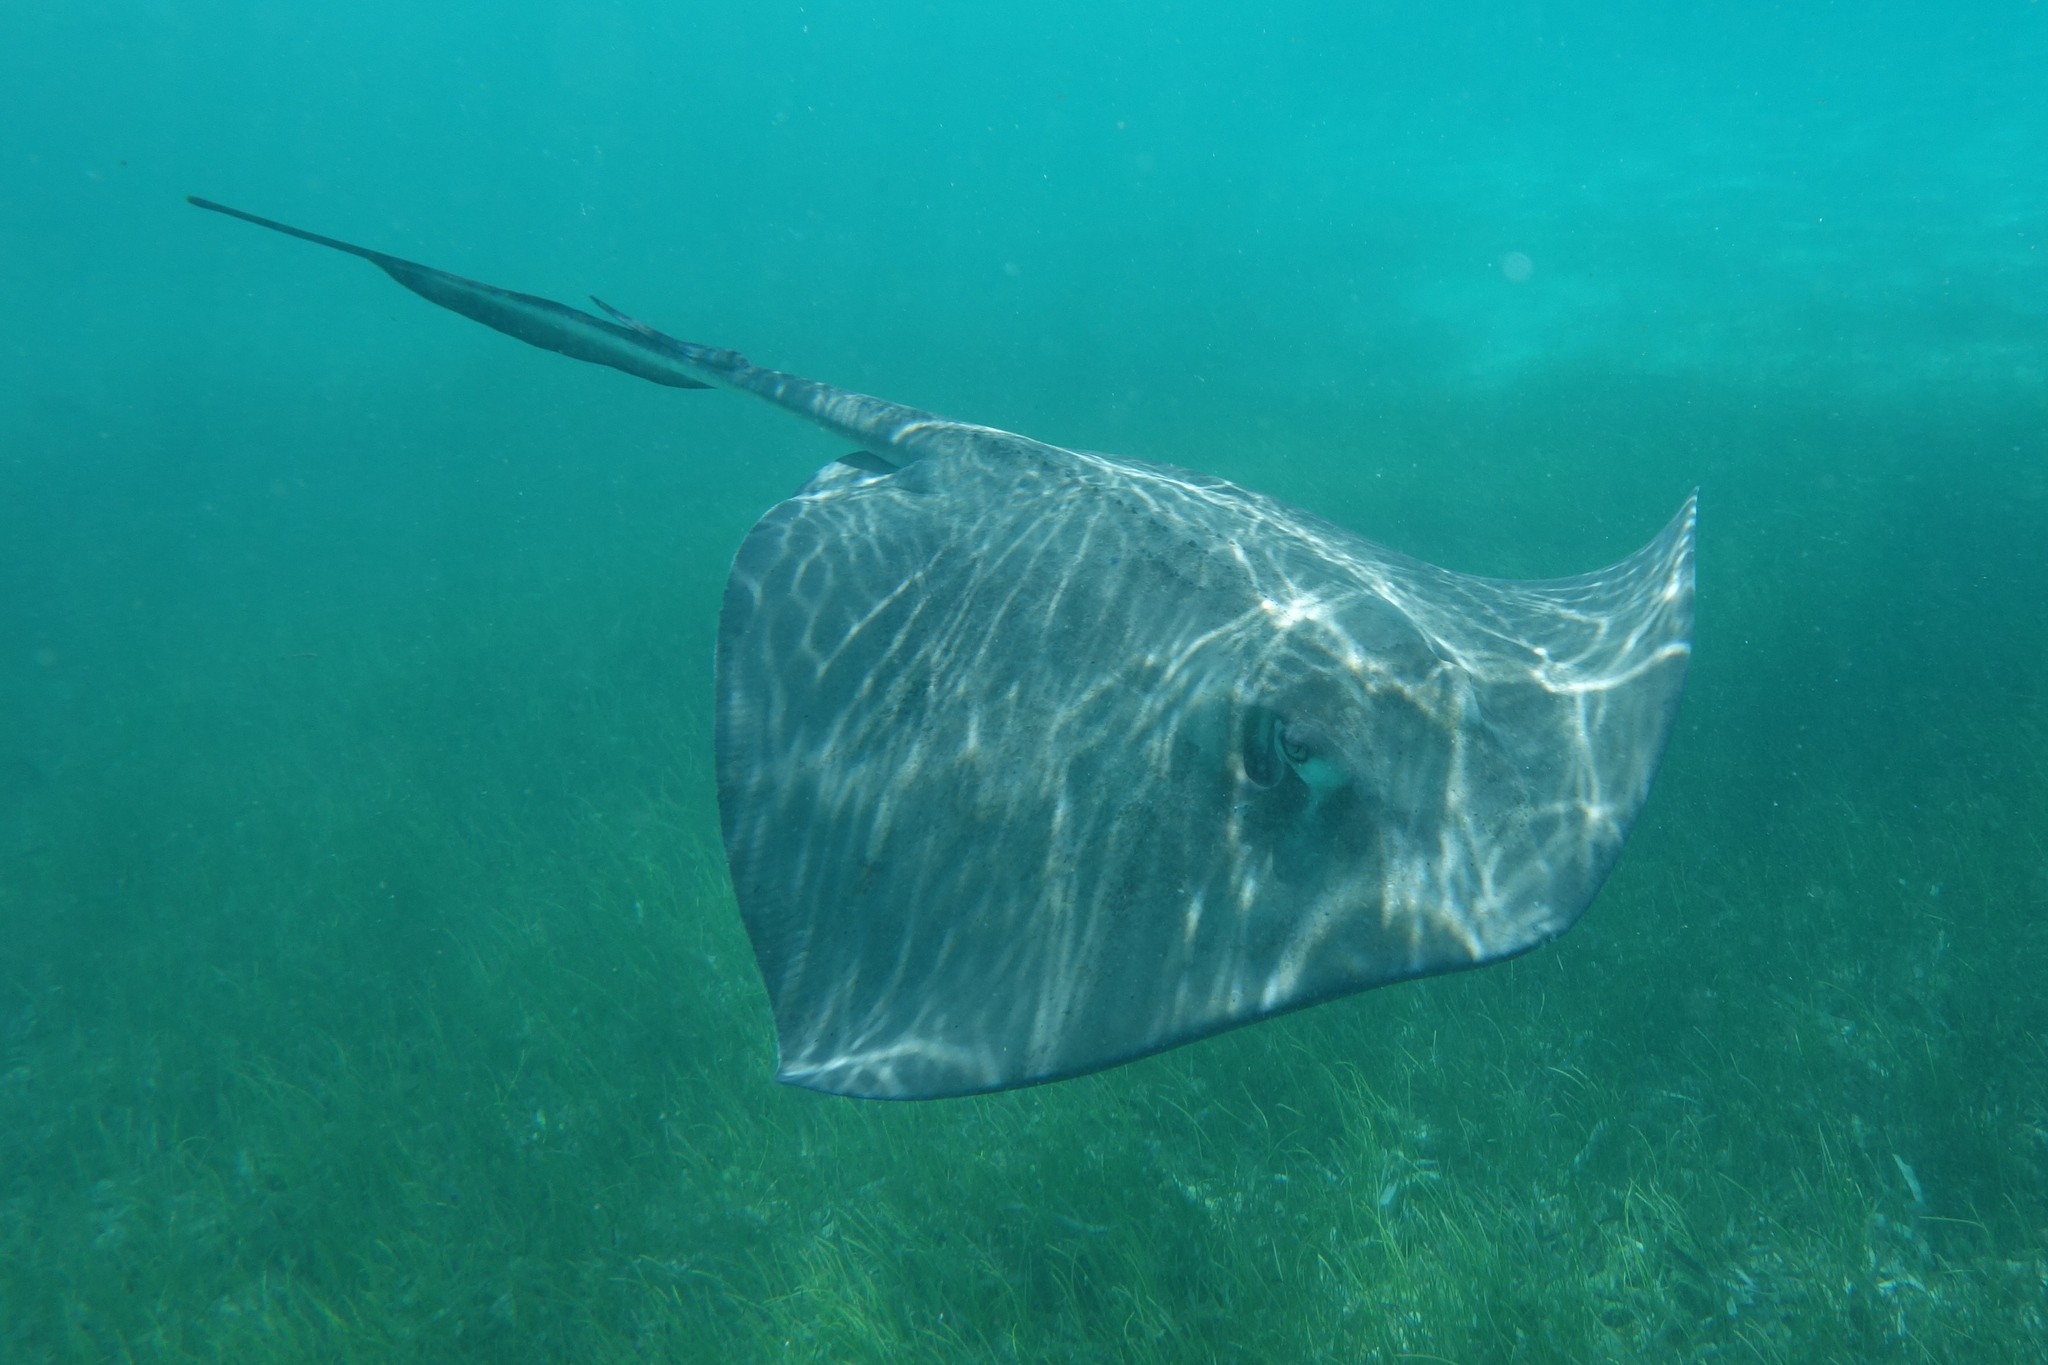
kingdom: Animalia
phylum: Chordata
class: Elasmobranchii
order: Myliobatiformes
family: Dasyatidae
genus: Hypanus
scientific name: Hypanus americanus
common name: Southern stingray
